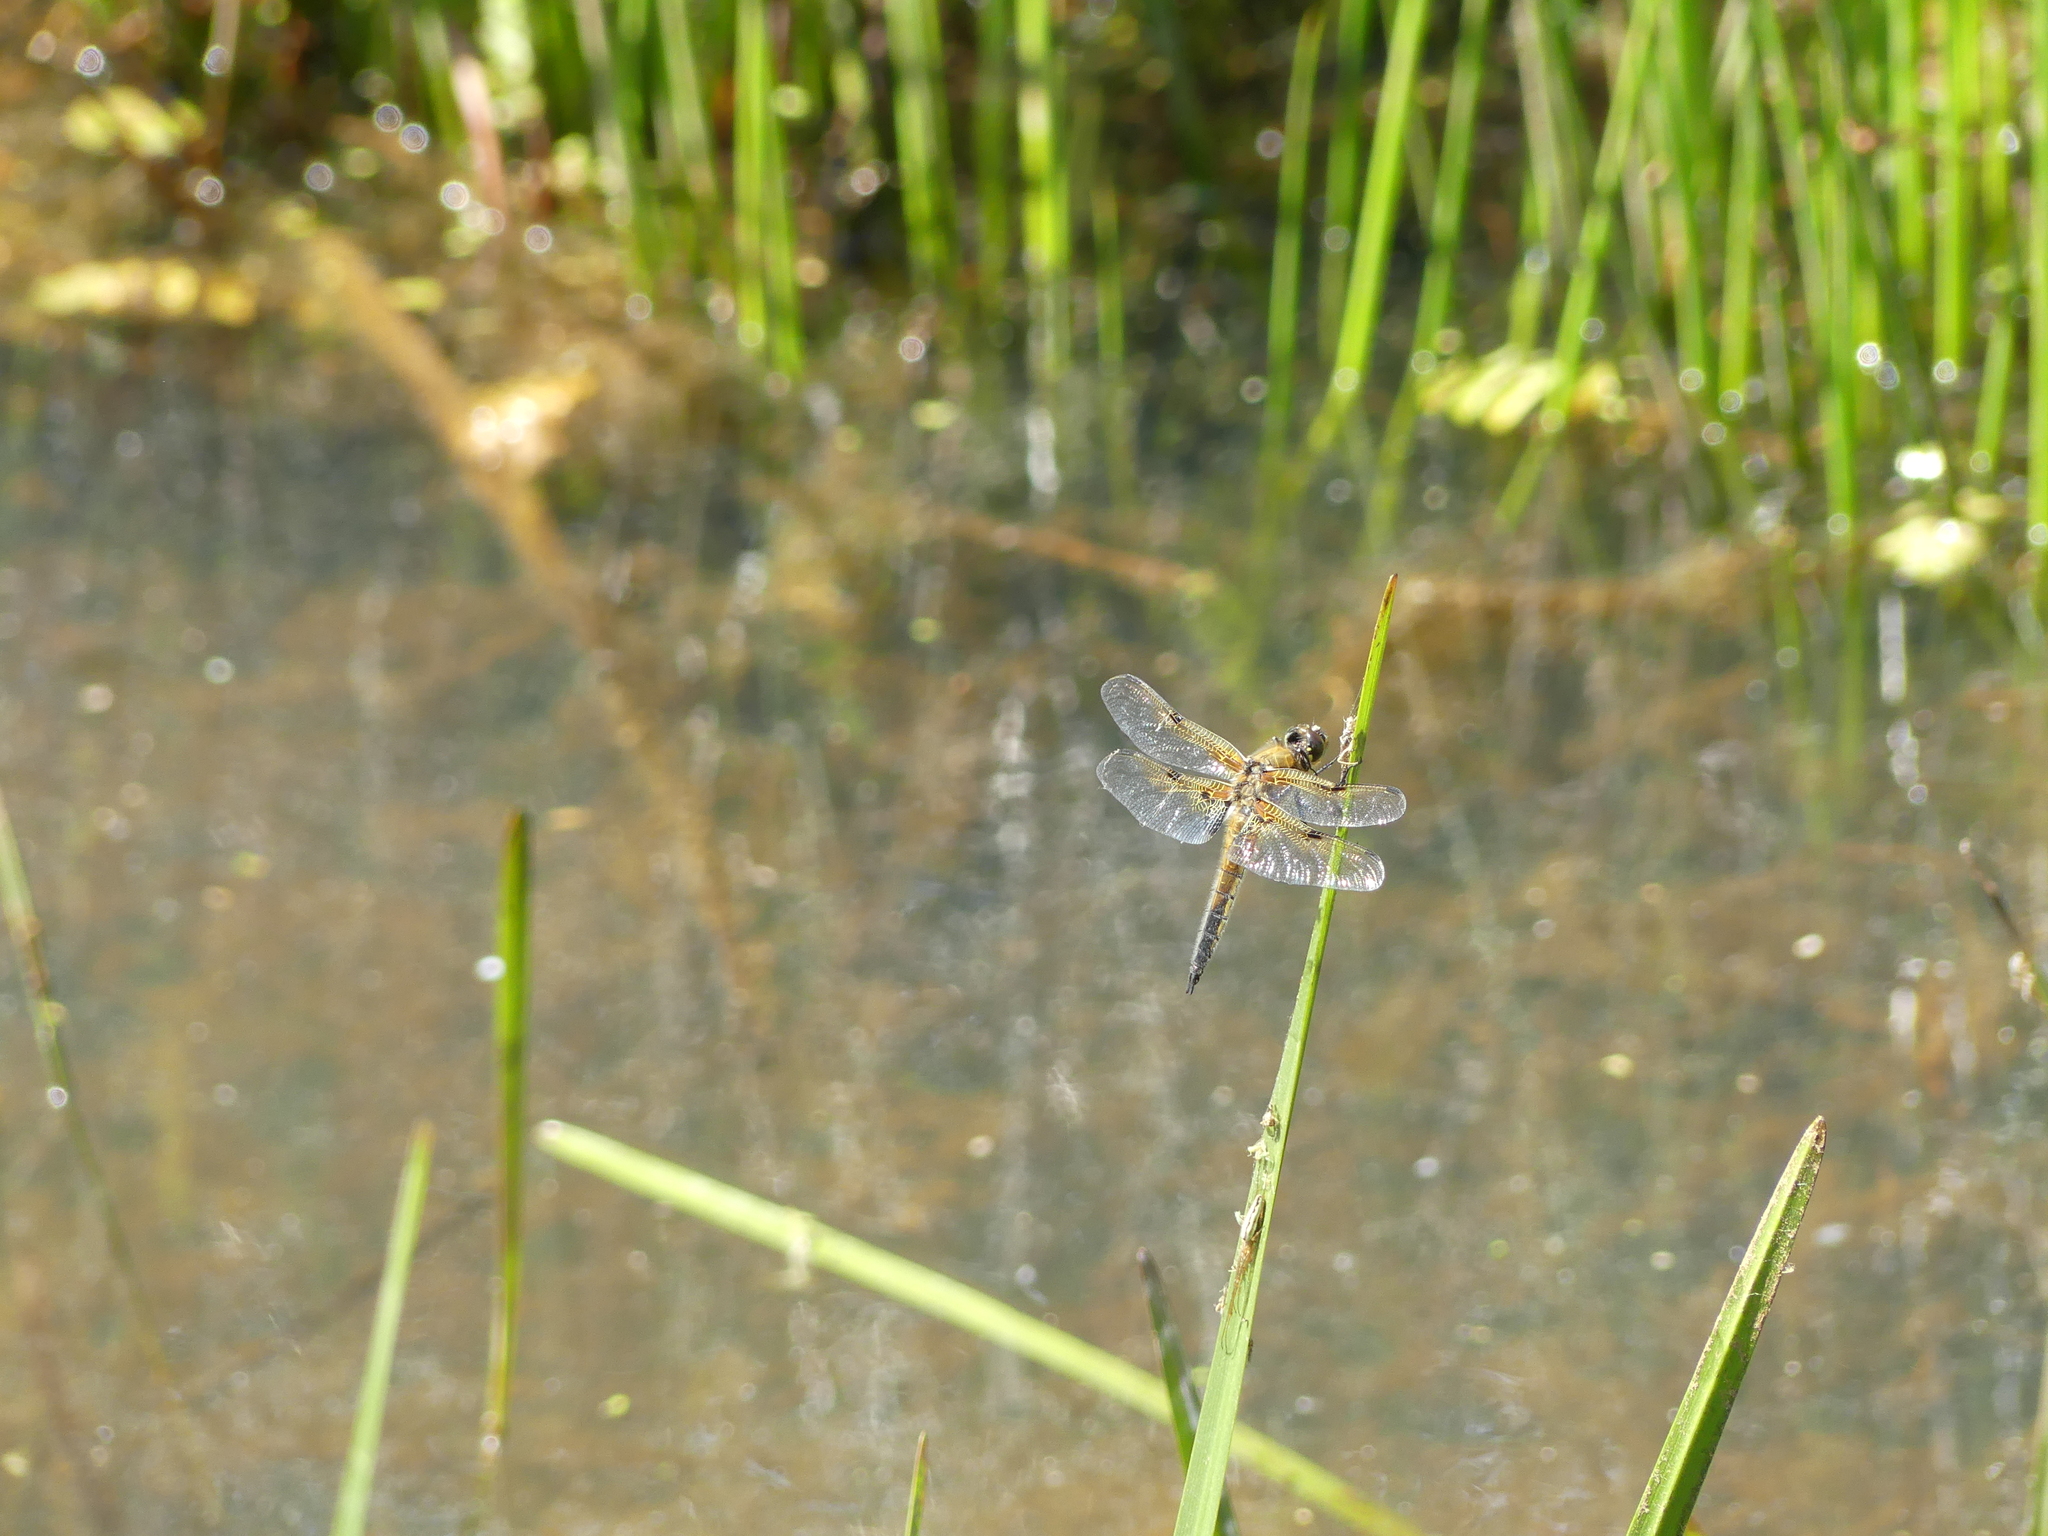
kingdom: Animalia
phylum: Arthropoda
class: Insecta
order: Odonata
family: Libellulidae
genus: Libellula
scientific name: Libellula quadrimaculata
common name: Four-spotted chaser
